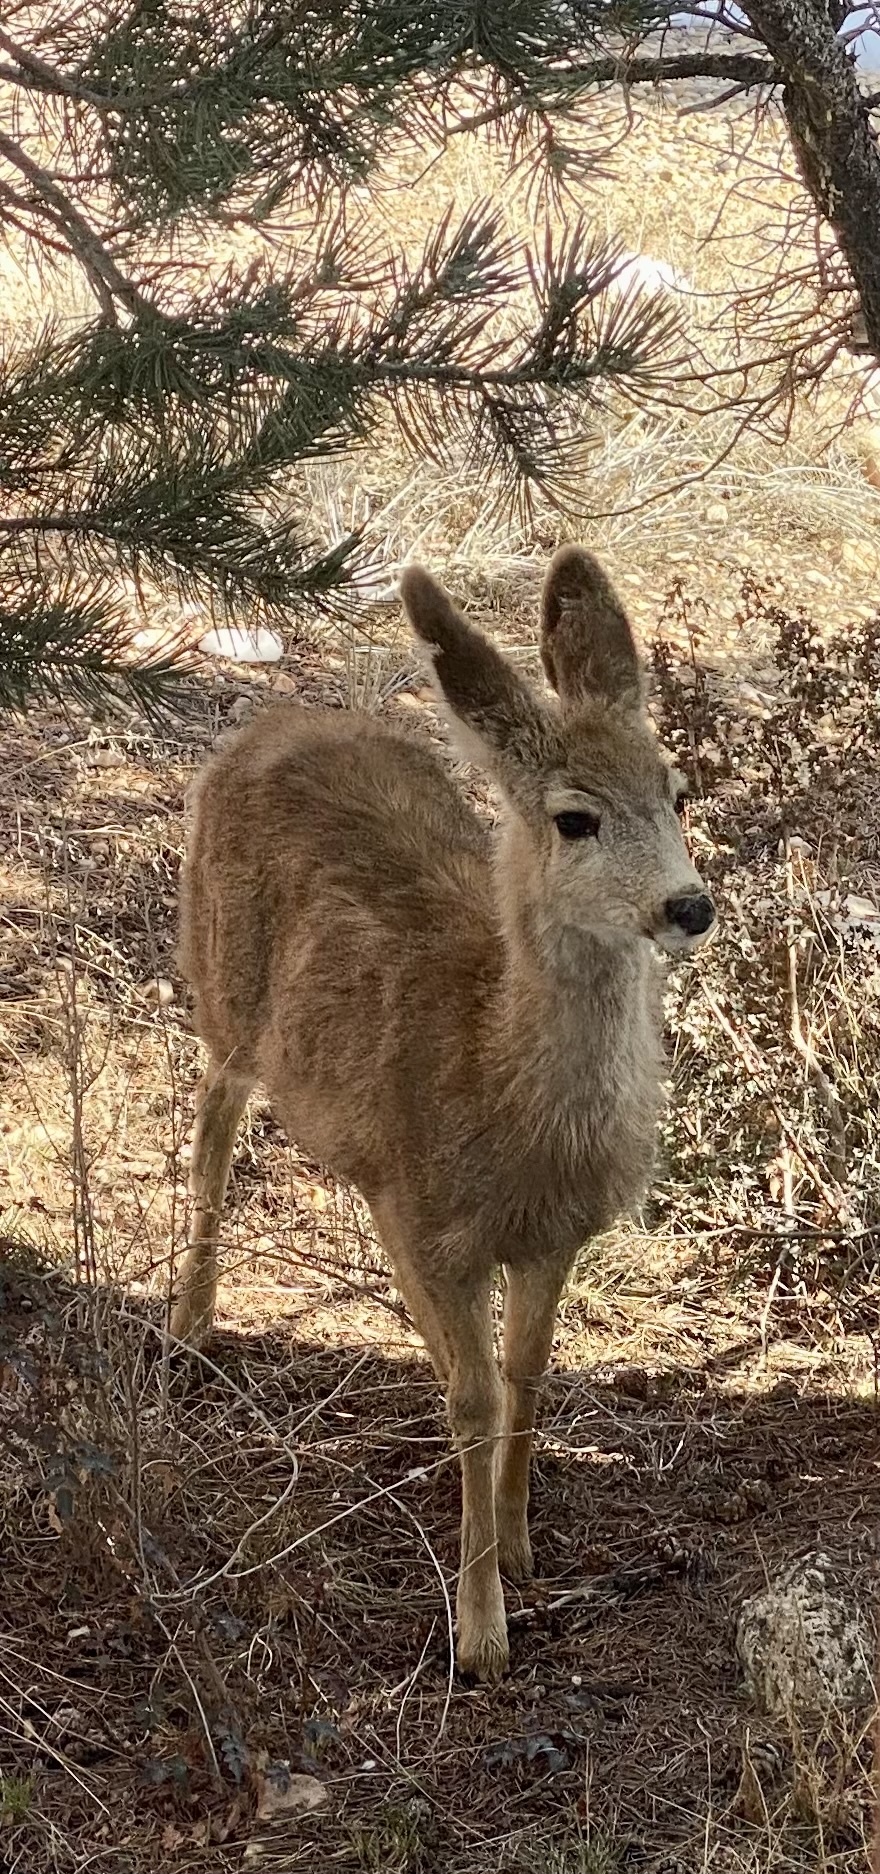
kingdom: Animalia
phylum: Chordata
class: Mammalia
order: Artiodactyla
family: Cervidae
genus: Odocoileus
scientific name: Odocoileus hemionus
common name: Mule deer
